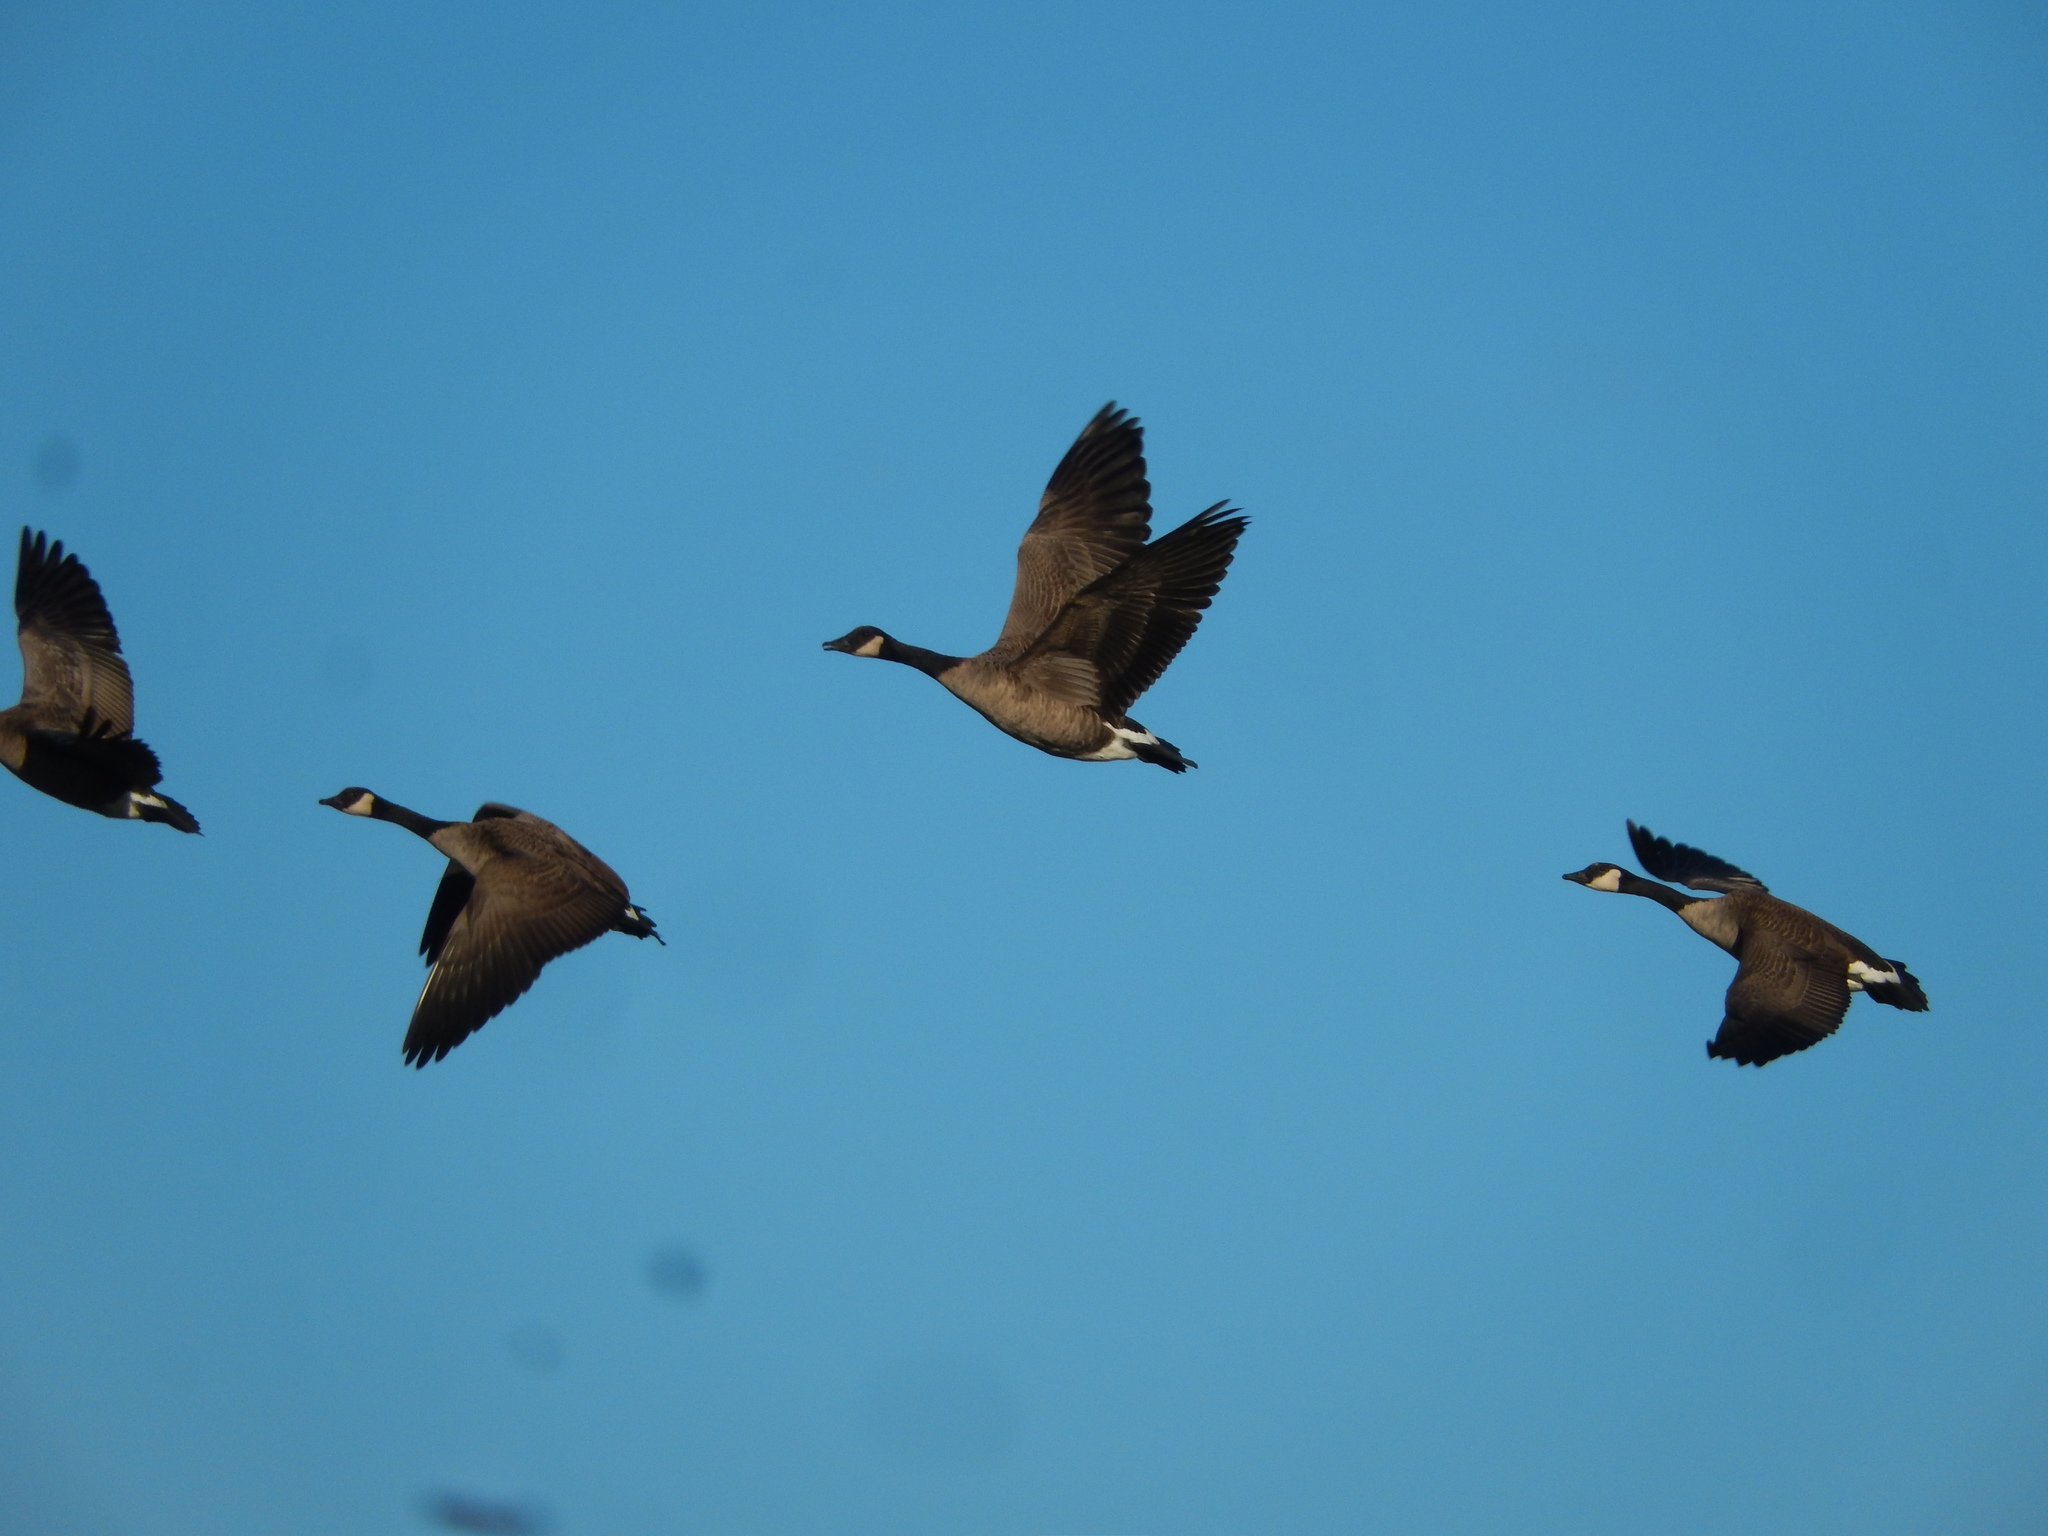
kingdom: Animalia
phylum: Chordata
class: Aves
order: Anseriformes
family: Anatidae
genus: Branta
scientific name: Branta canadensis
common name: Canada goose
